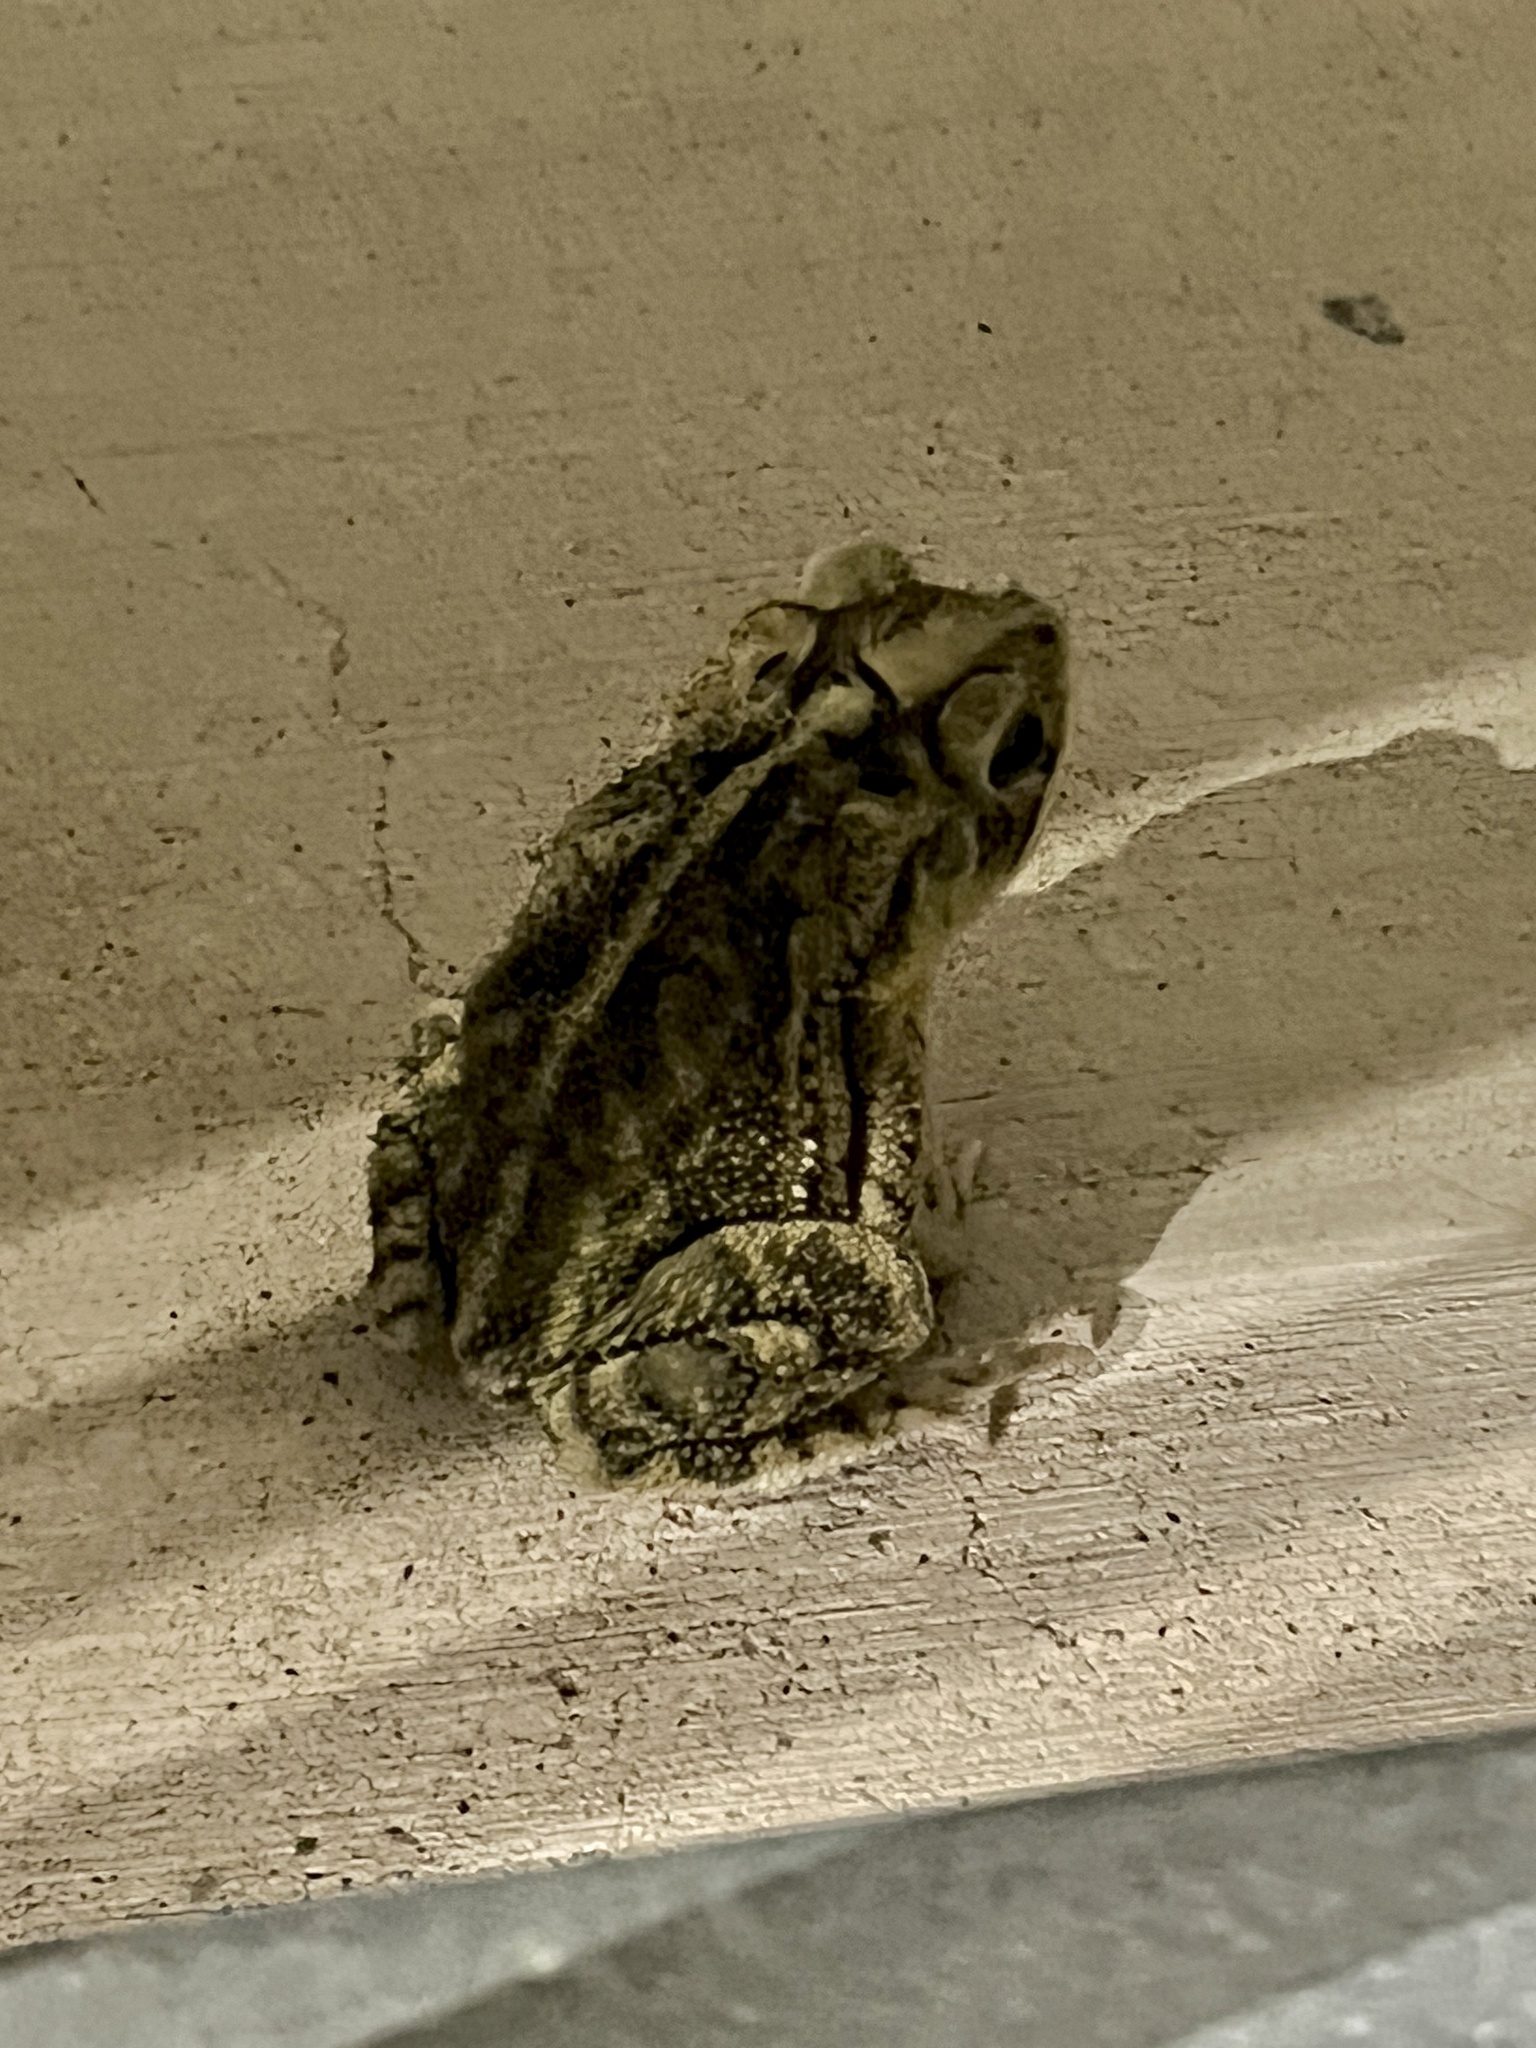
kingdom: Animalia
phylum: Chordata
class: Amphibia
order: Anura
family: Bufonidae
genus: Incilius
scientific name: Incilius nebulifer
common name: Gulf coast toad
